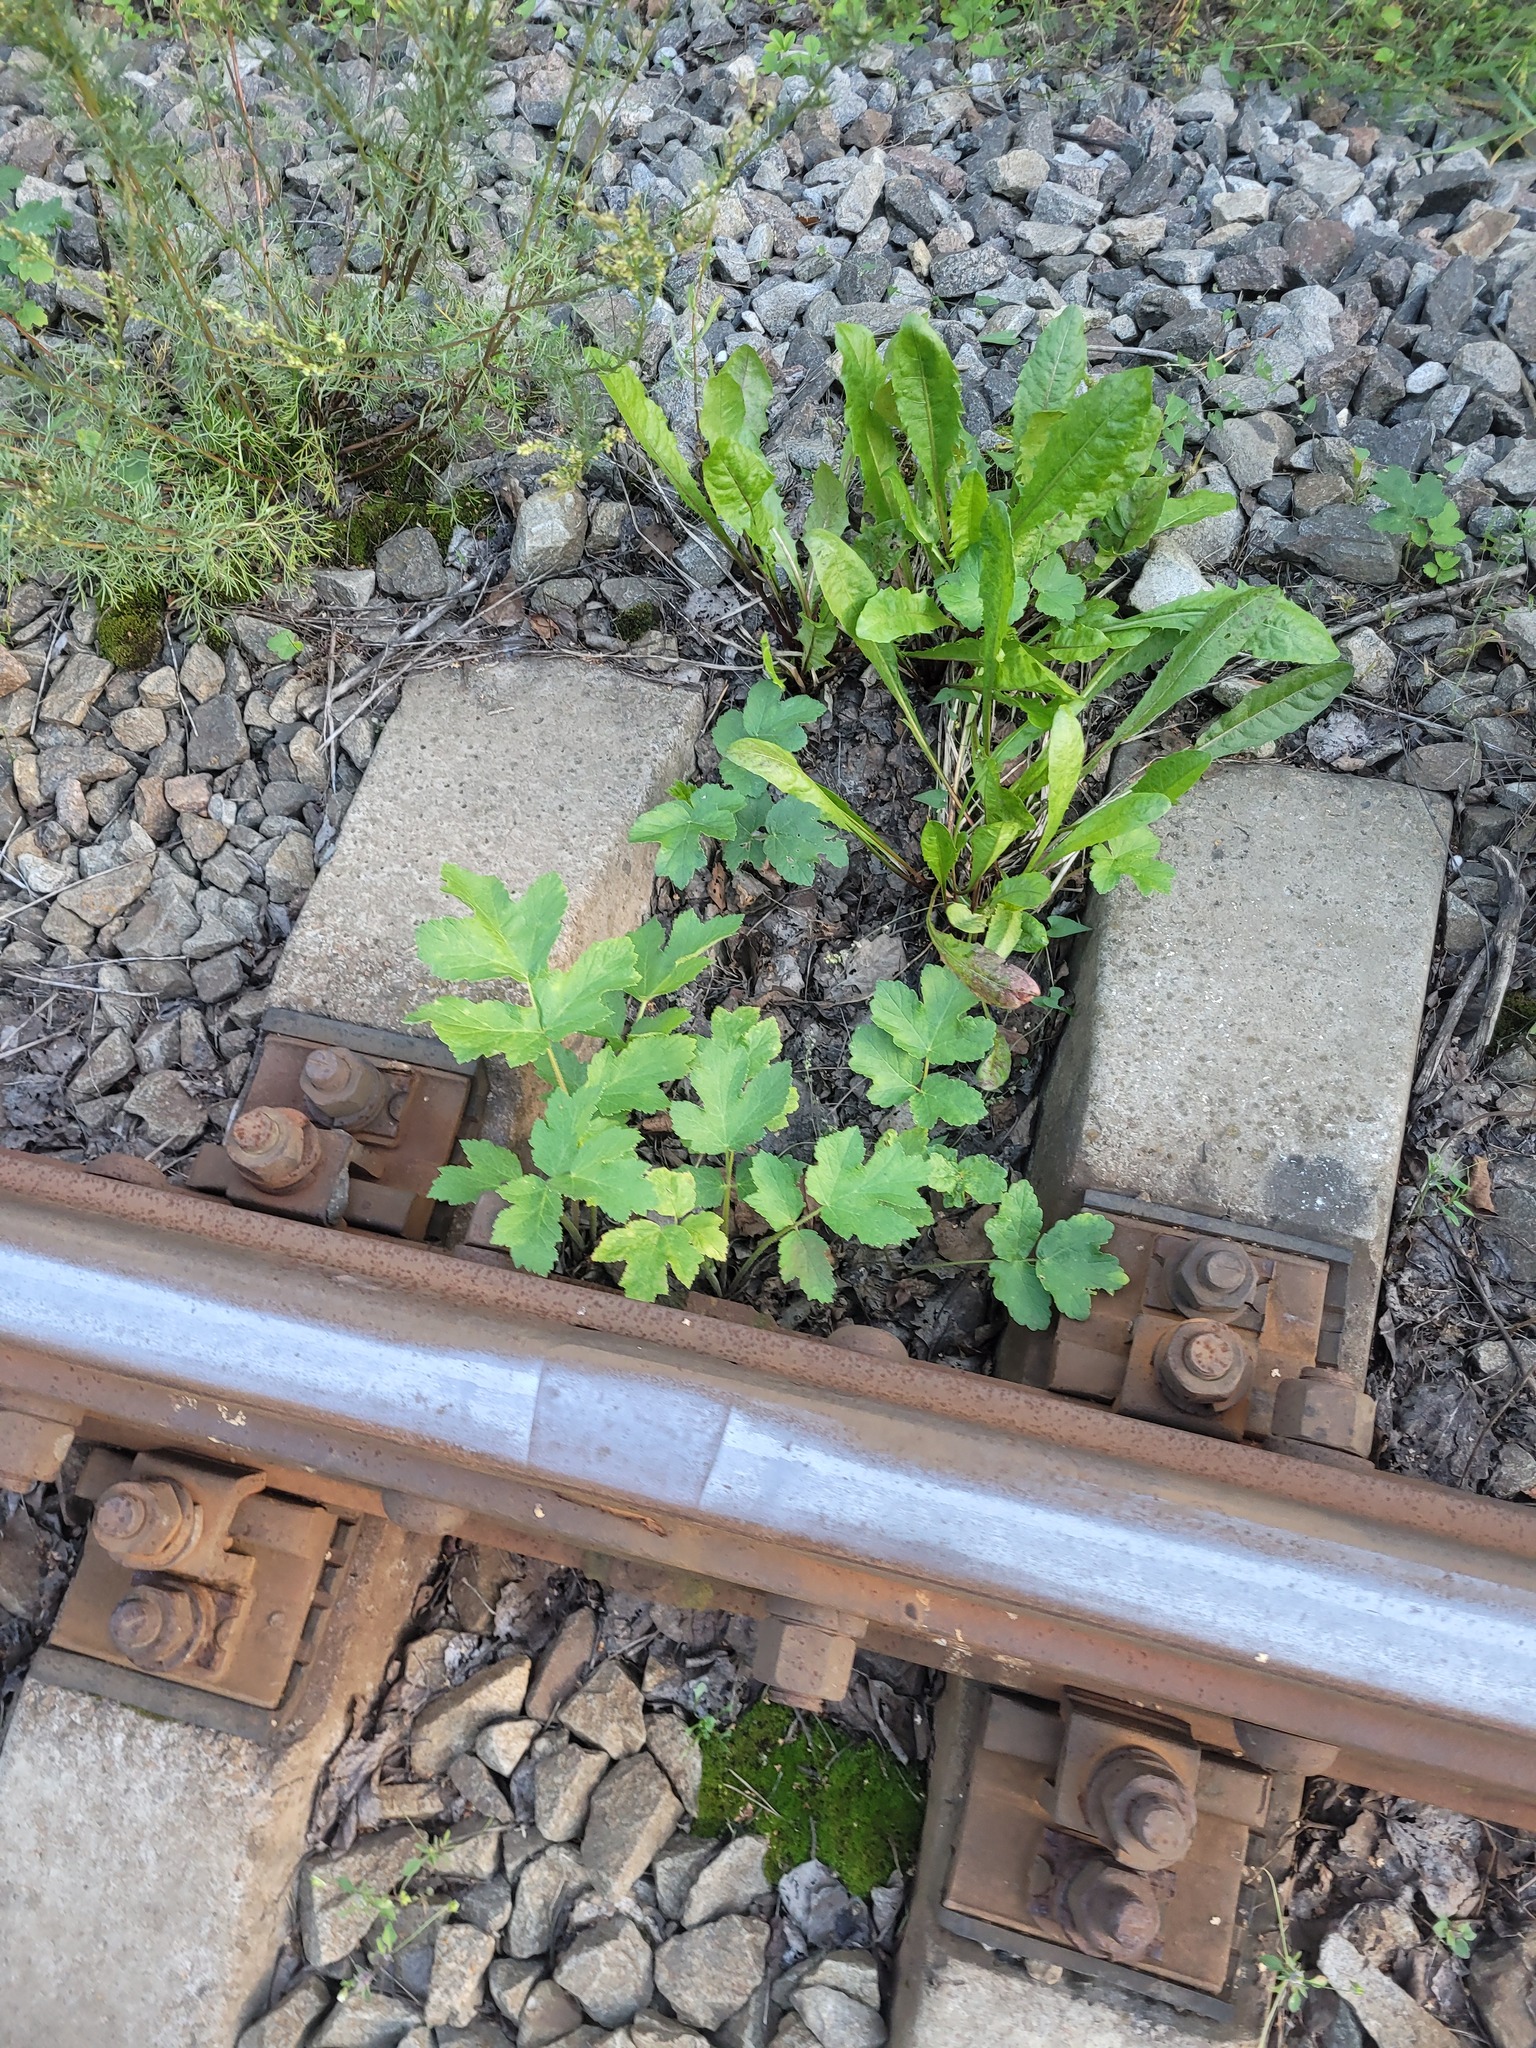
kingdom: Plantae
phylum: Tracheophyta
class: Magnoliopsida
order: Apiales
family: Apiaceae
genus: Heracleum
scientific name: Heracleum sphondylium
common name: Hogweed
